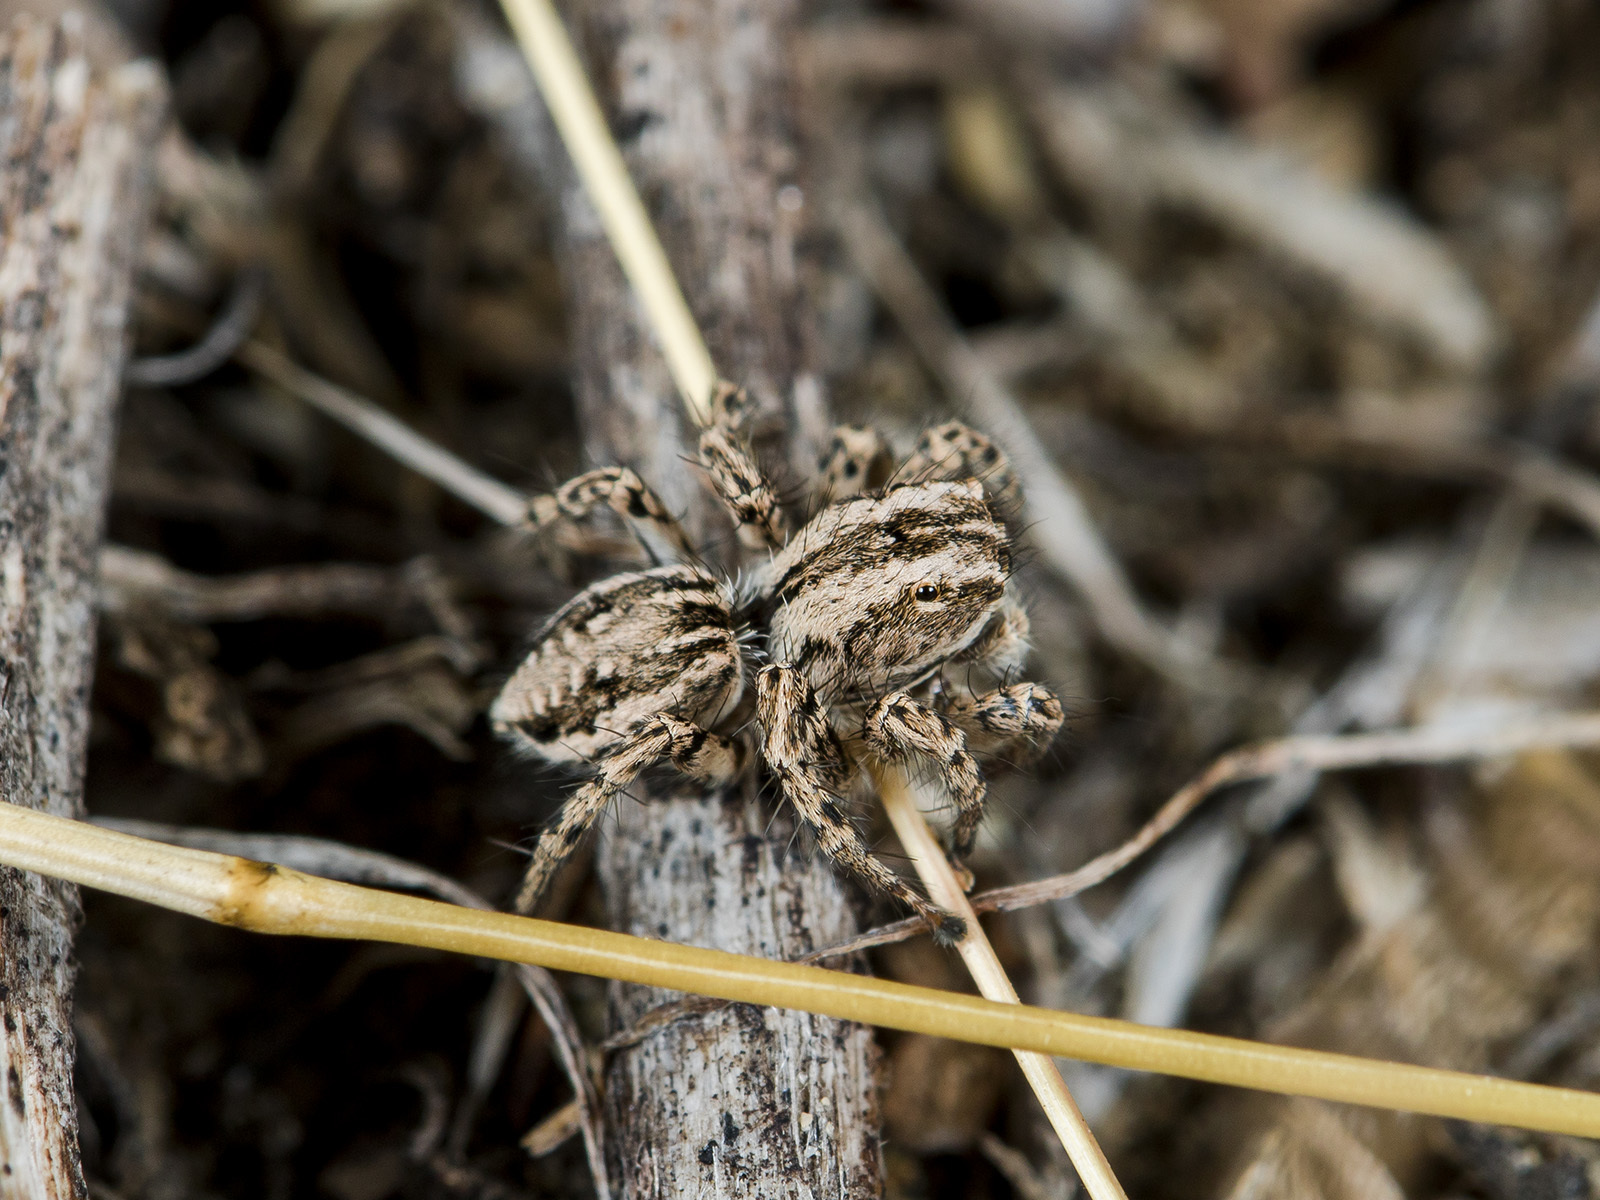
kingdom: Animalia
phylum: Arthropoda
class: Arachnida
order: Araneae
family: Salticidae
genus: Aelurillus
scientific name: Aelurillus m-nigrum
